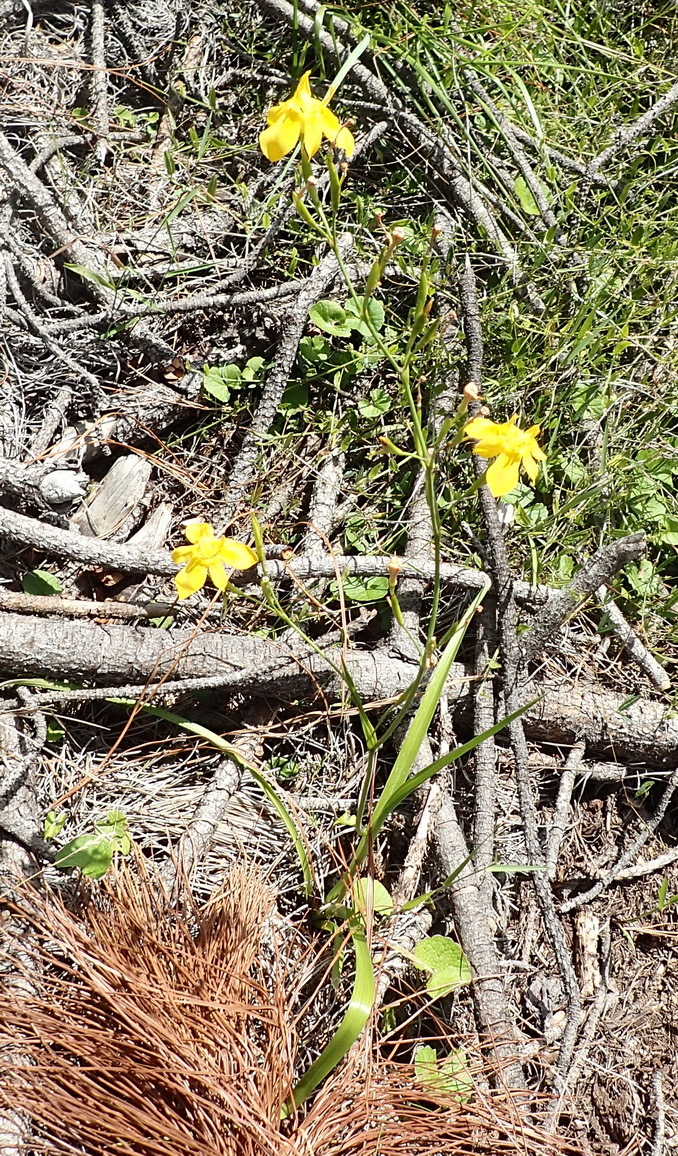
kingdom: Plantae
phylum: Tracheophyta
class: Liliopsida
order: Asparagales
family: Iridaceae
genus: Moraea
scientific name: Moraea ramosissima
